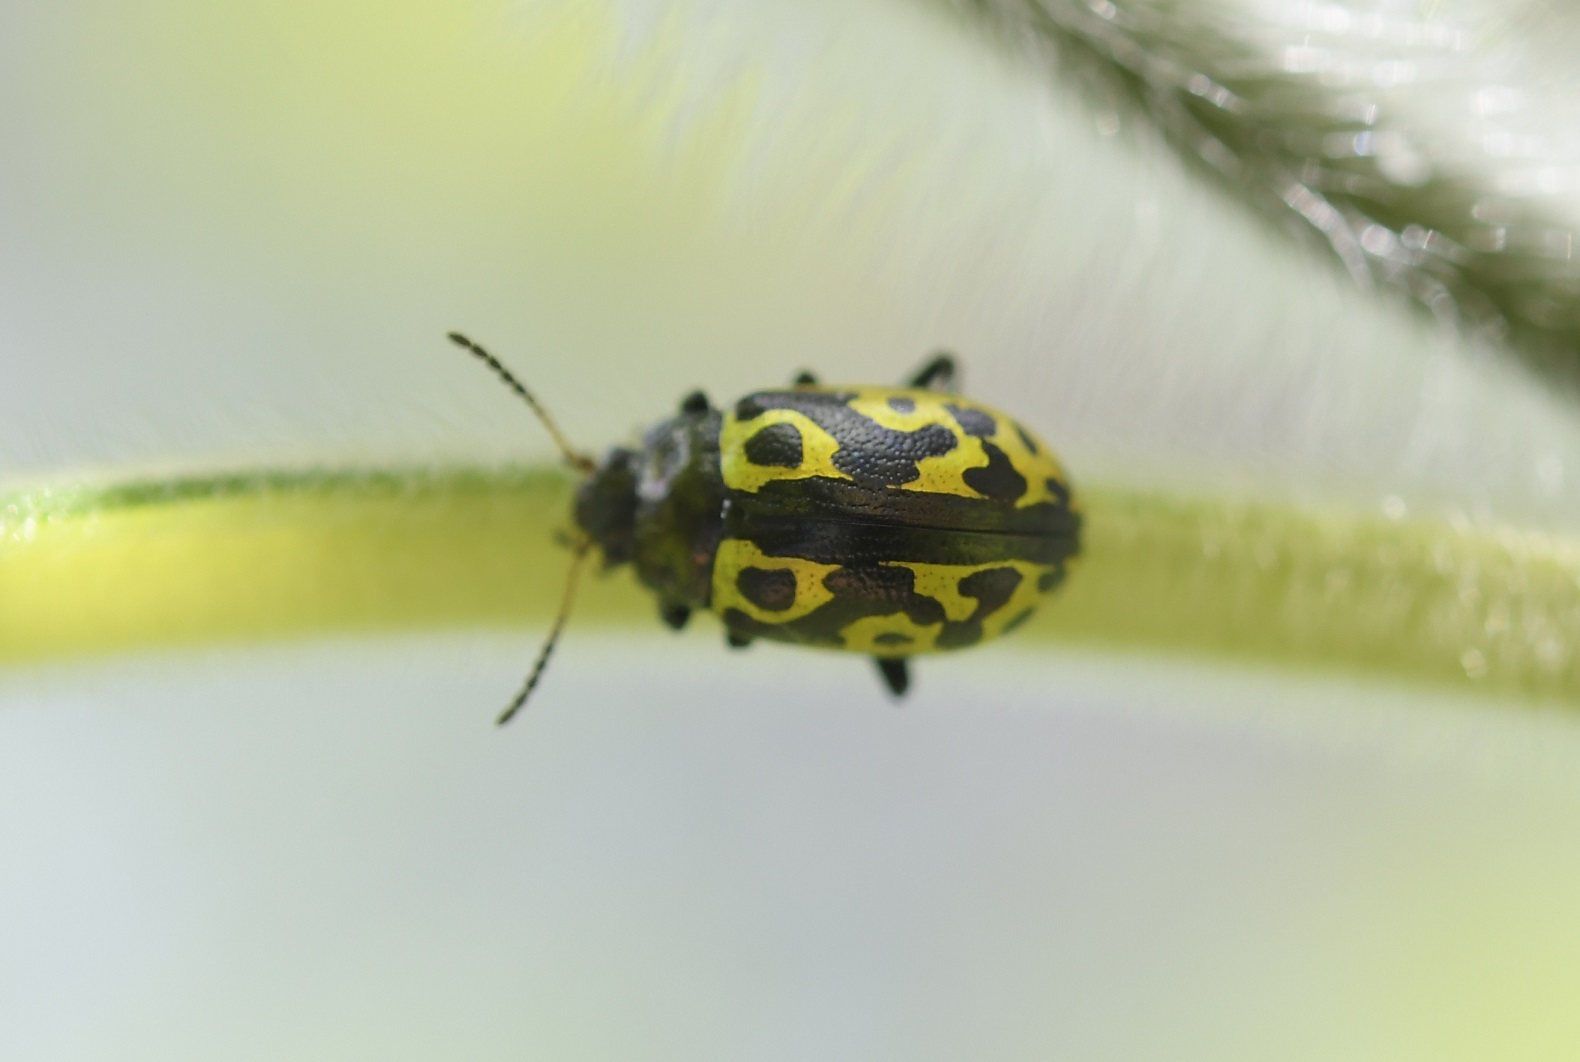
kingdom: Animalia
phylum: Arthropoda
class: Insecta
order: Coleoptera
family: Chrysomelidae
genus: Calligrapha
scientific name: Calligrapha
